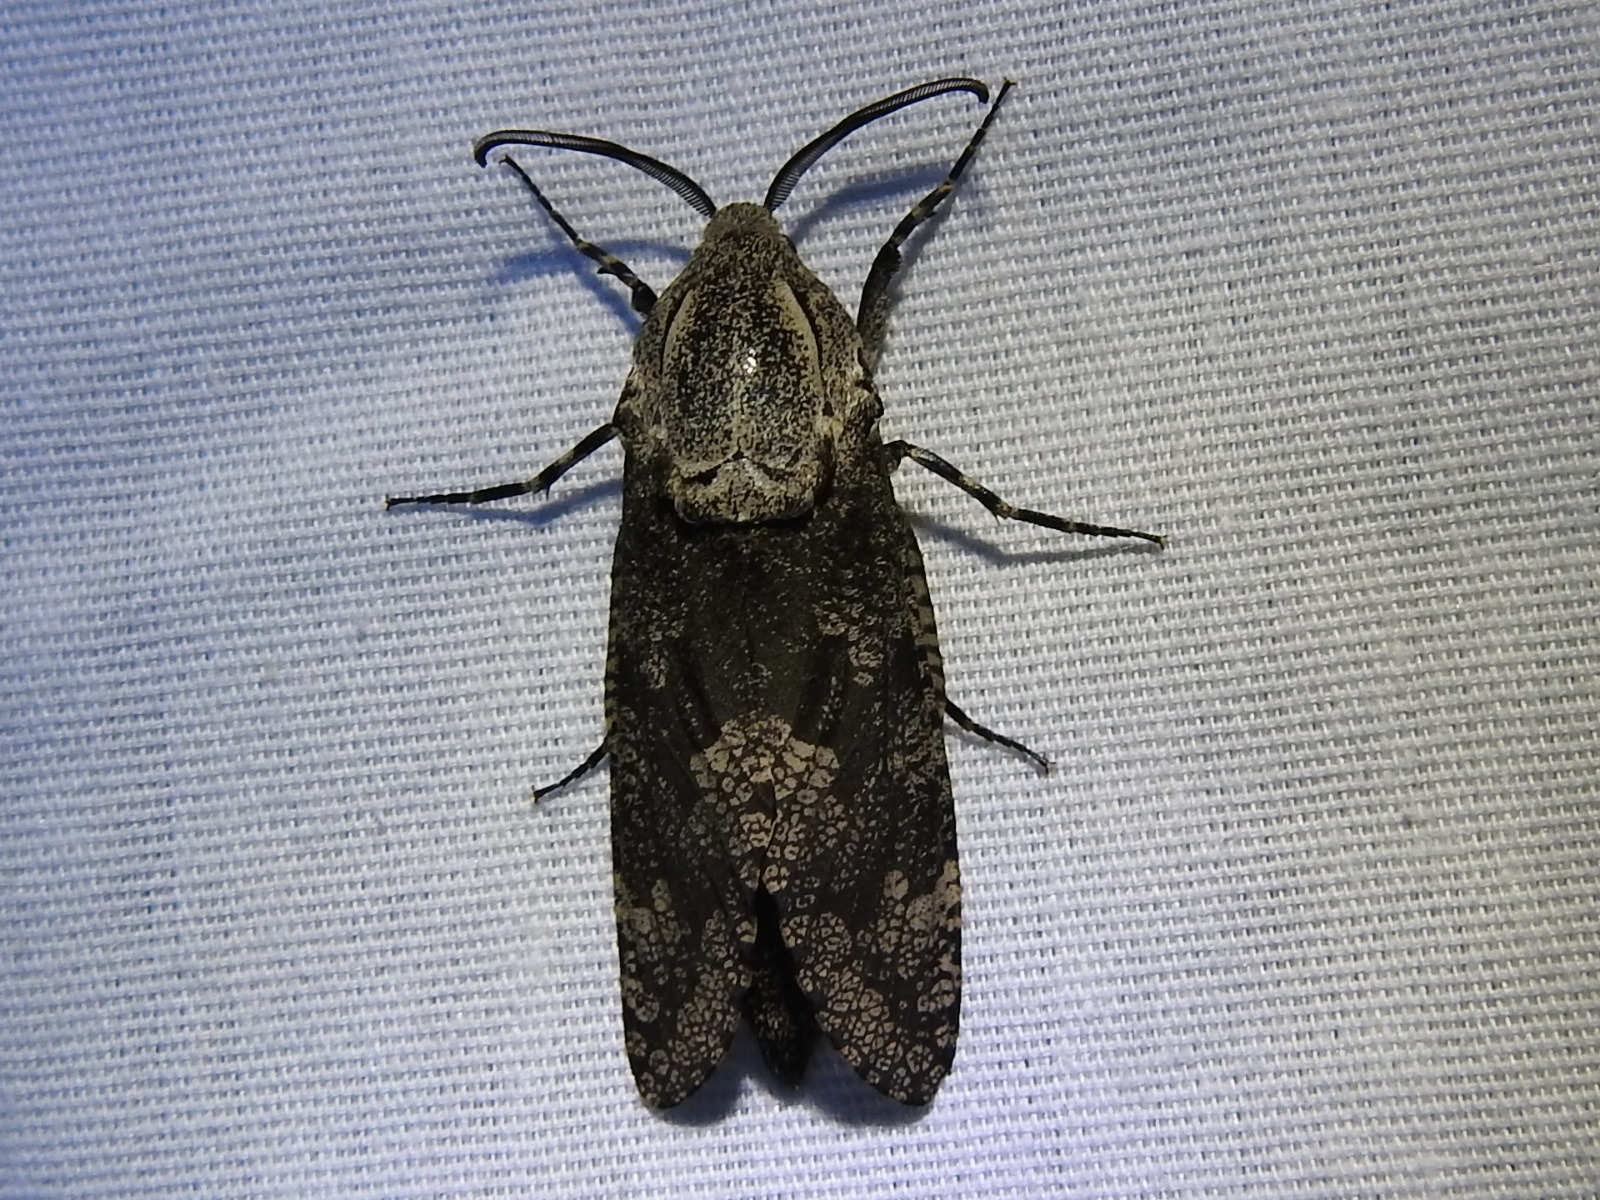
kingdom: Animalia
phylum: Arthropoda
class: Insecta
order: Lepidoptera
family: Cossidae
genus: Prionoxystus
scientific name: Prionoxystus robiniae
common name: Carpenterworm
